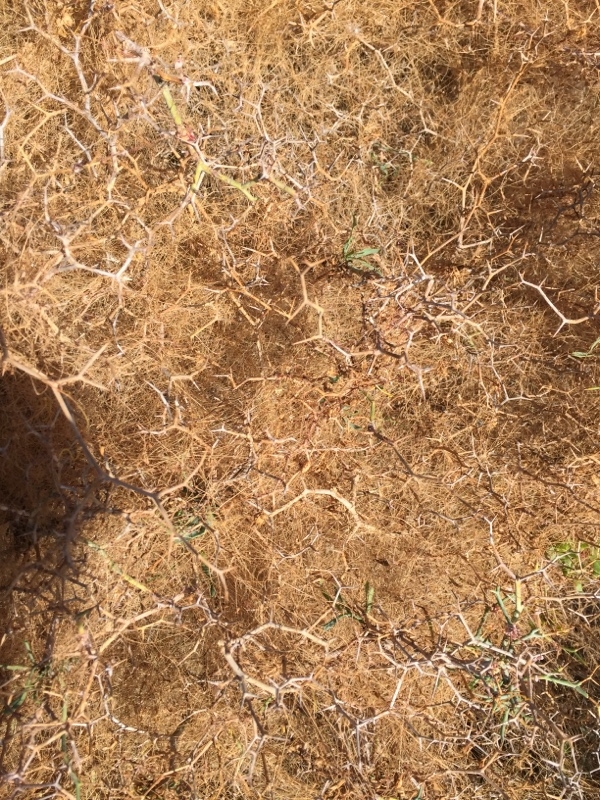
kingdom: Plantae
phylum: Tracheophyta
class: Magnoliopsida
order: Solanales
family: Convolvulaceae
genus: Cuscuta
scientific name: Cuscuta approximata
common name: Alfalfa dodder
